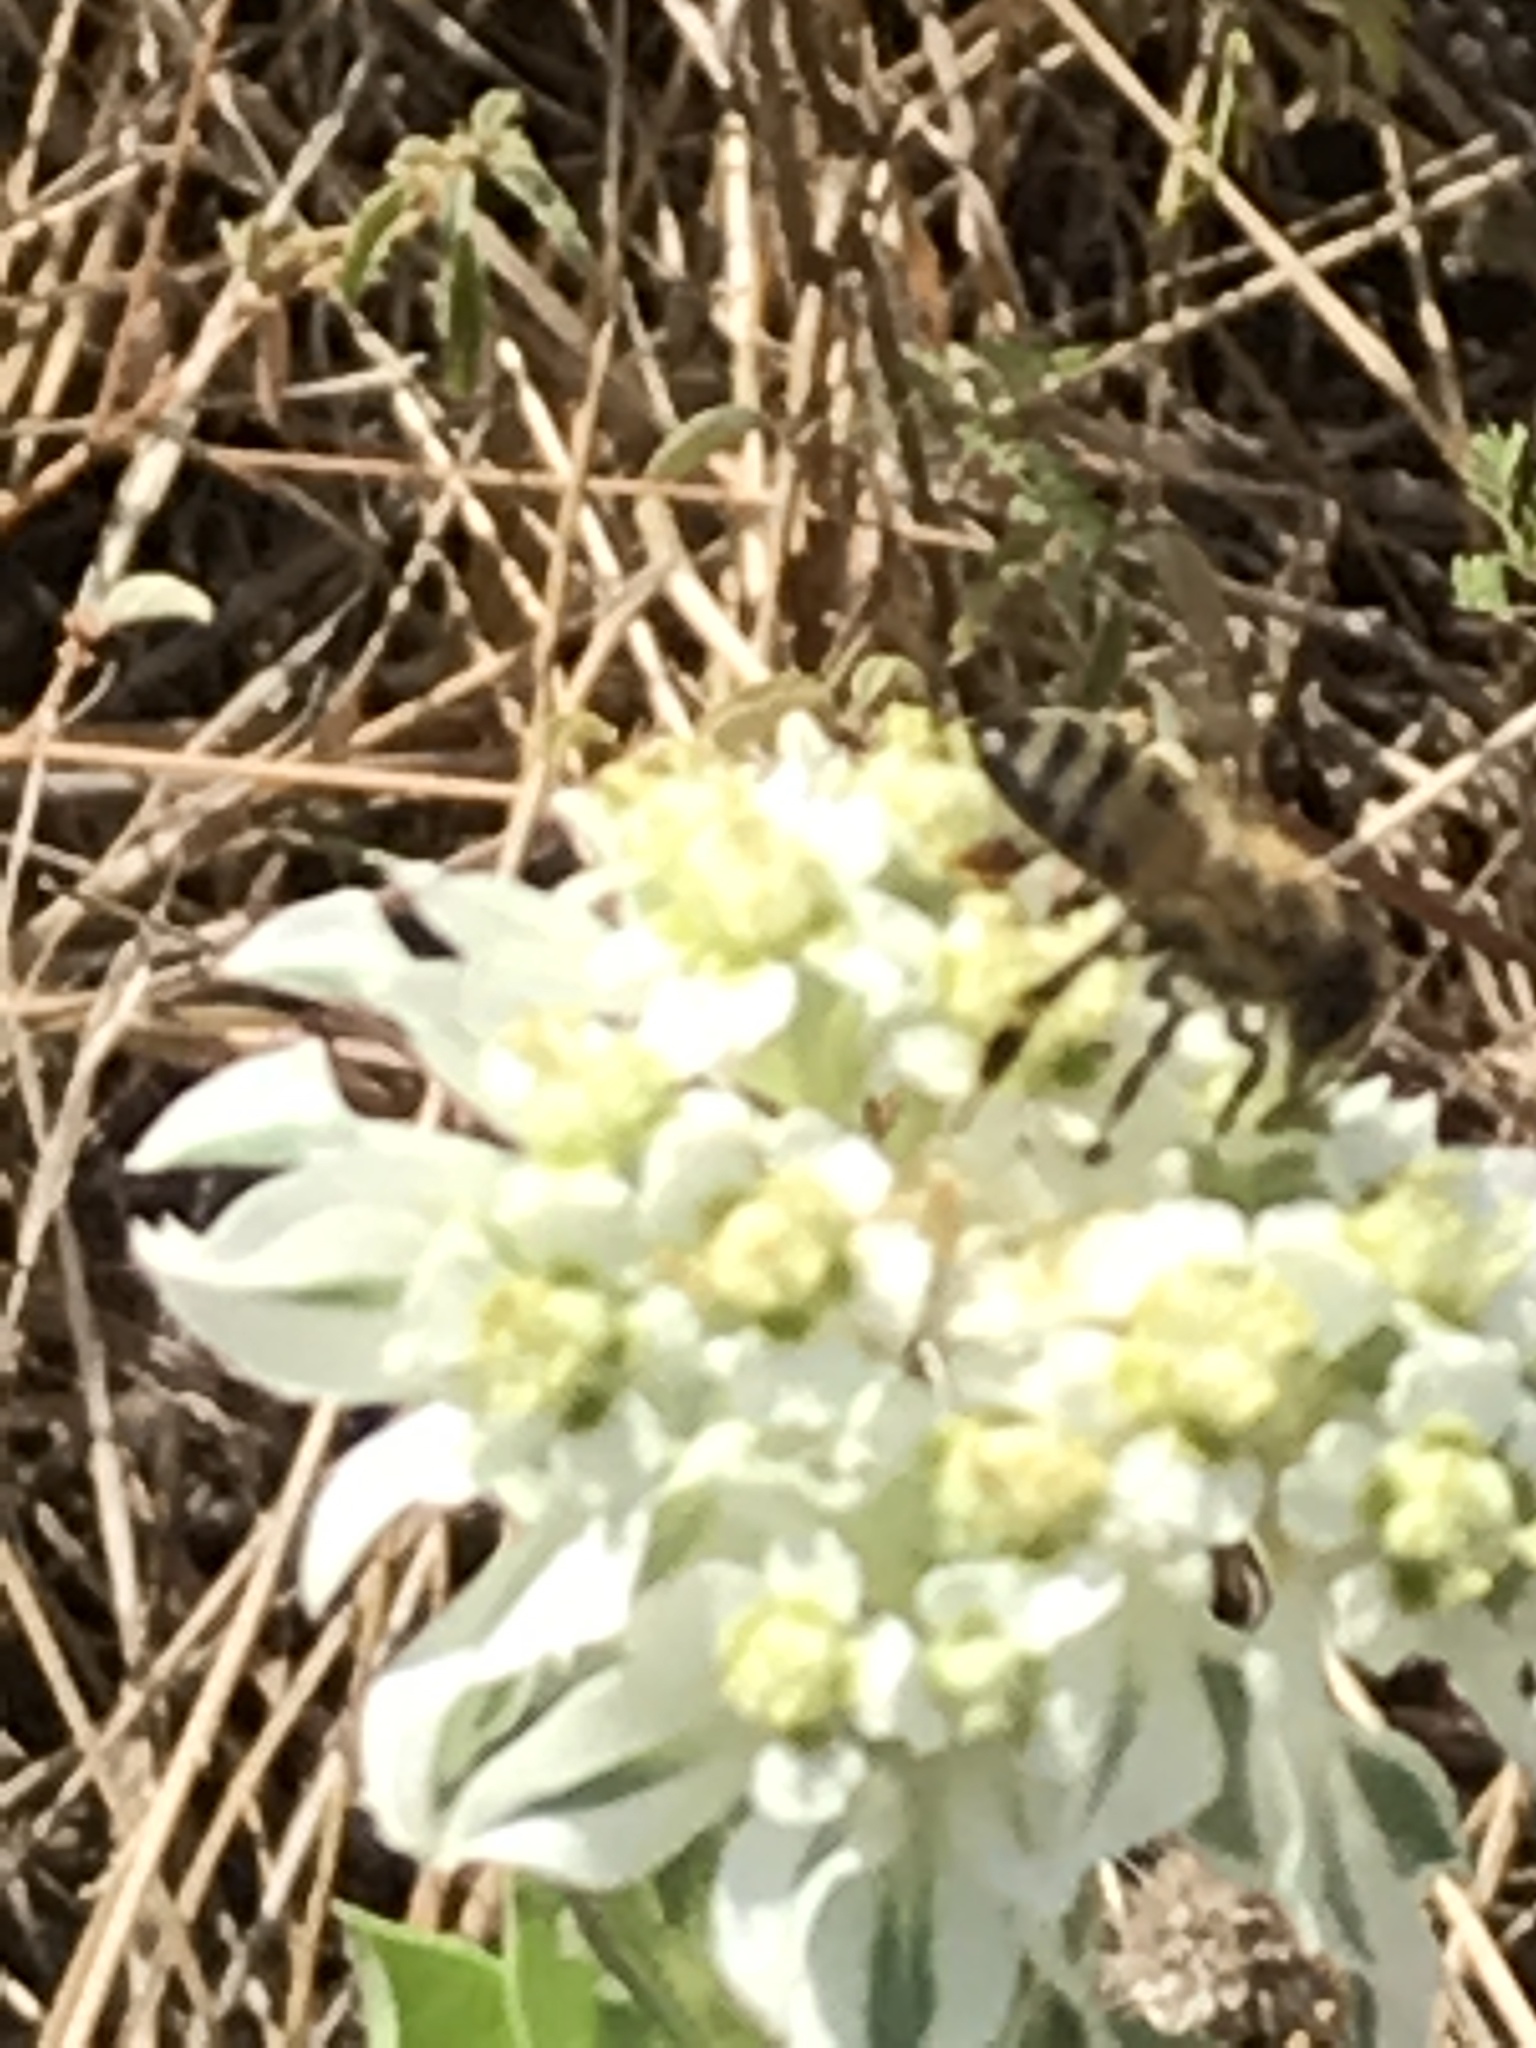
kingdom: Animalia
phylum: Arthropoda
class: Insecta
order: Hymenoptera
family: Apidae
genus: Apis
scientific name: Apis mellifera
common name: Honey bee
